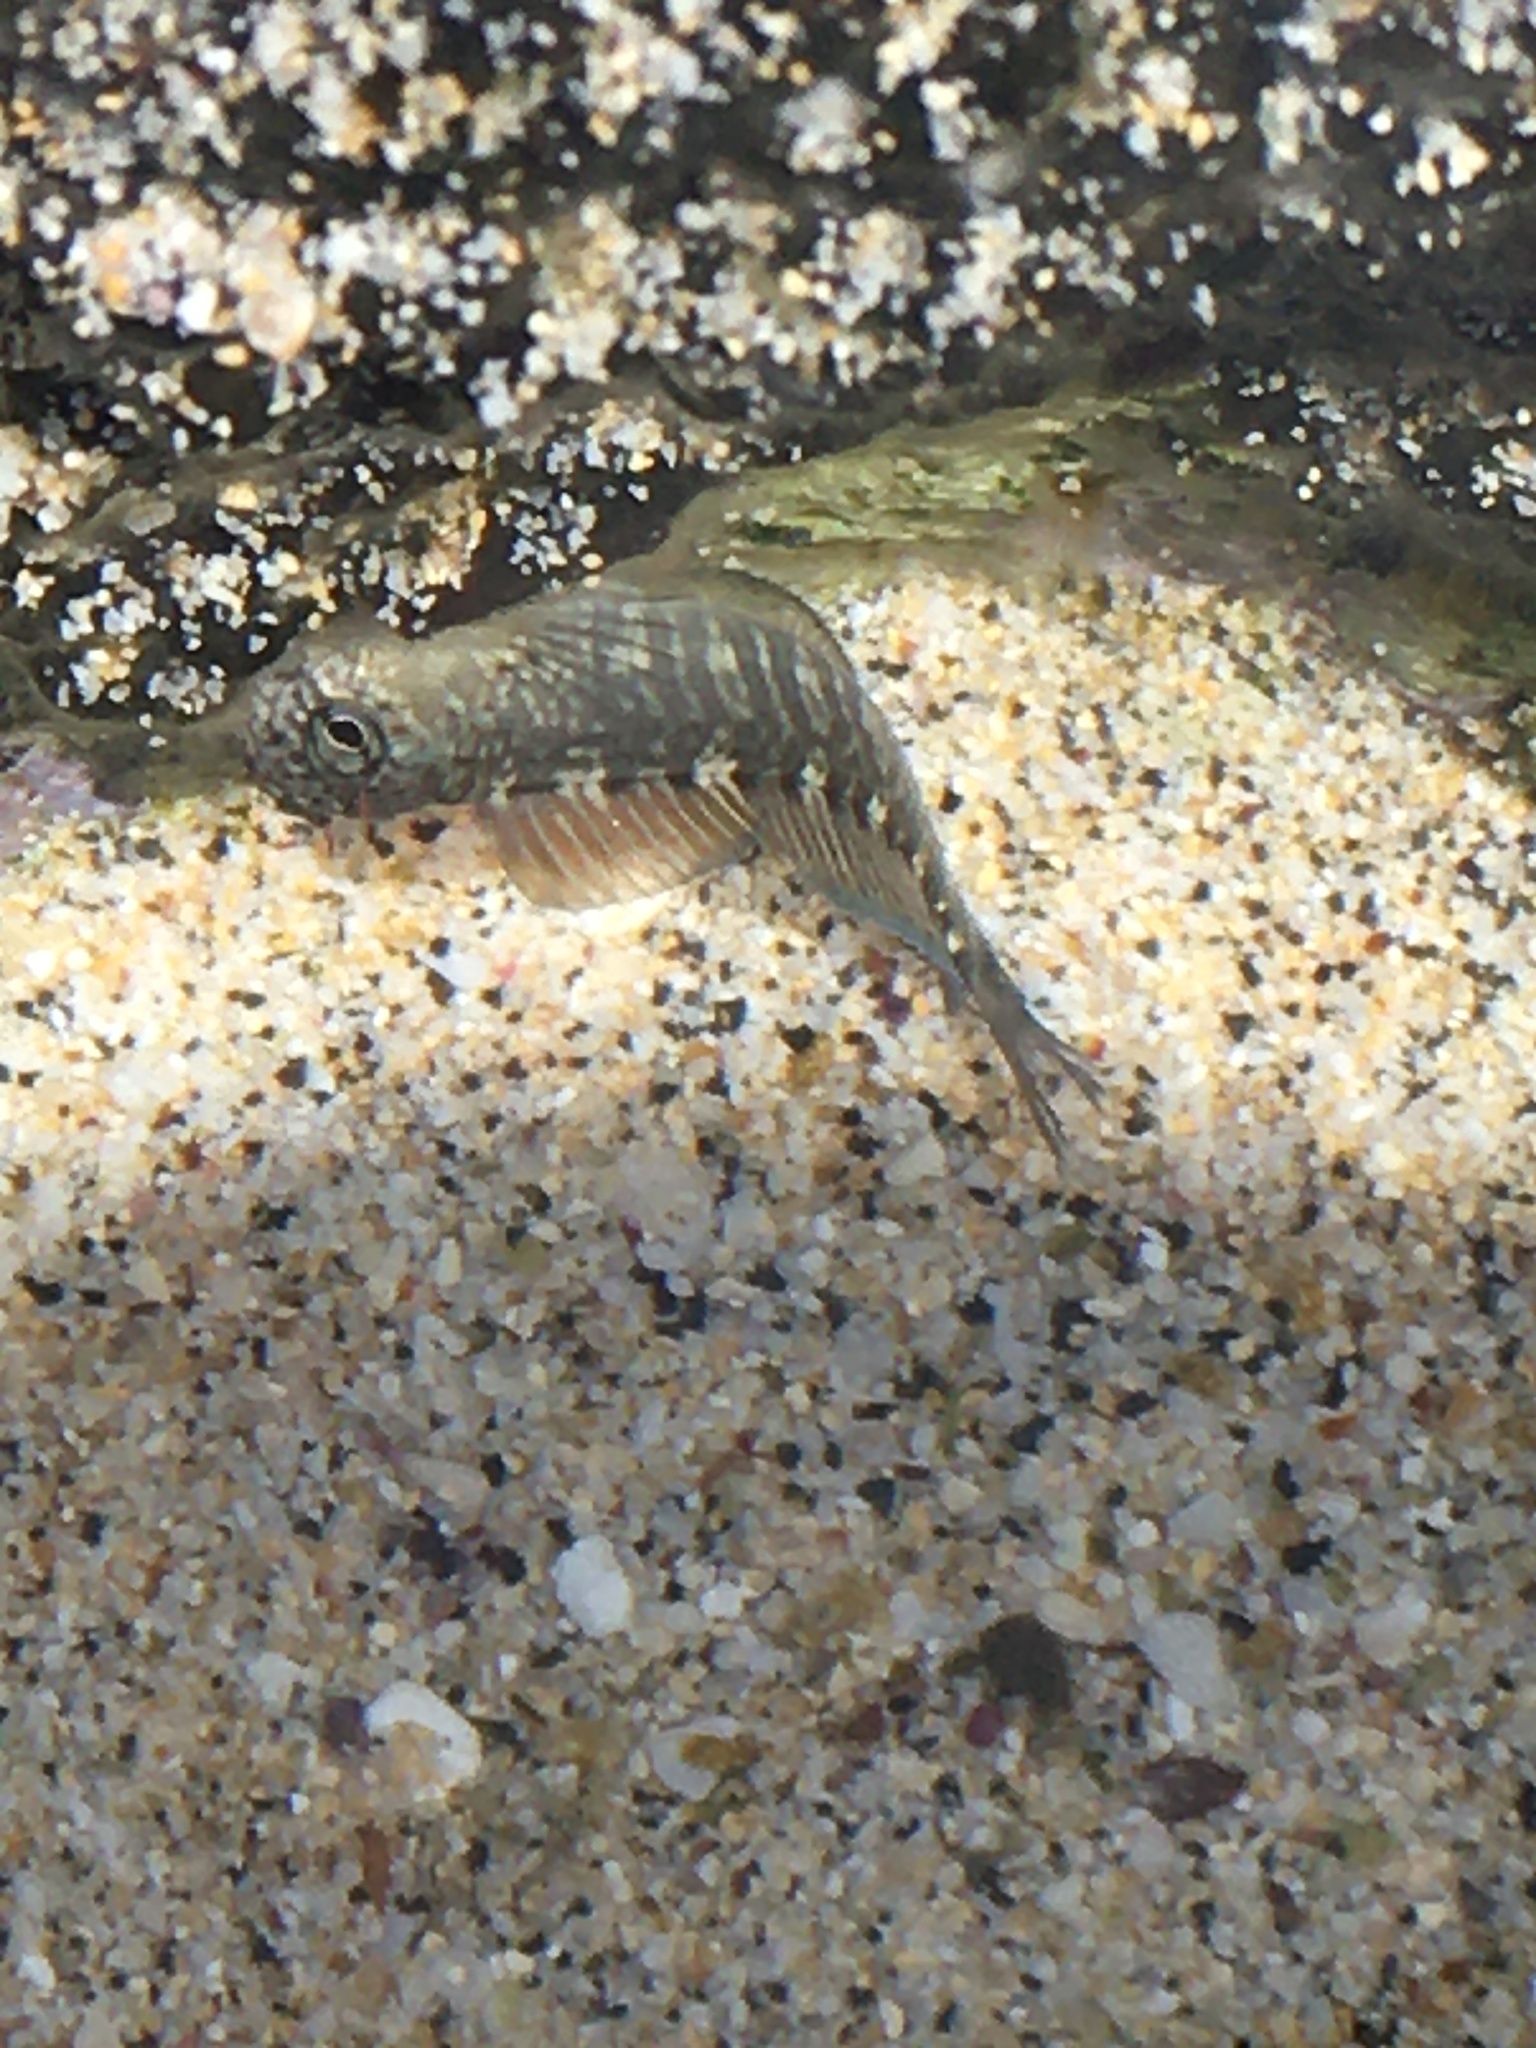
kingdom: Animalia
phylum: Chordata
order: Perciformes
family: Blenniidae
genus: Istiblennius
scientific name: Istiblennius zebra
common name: Zebra blenny
